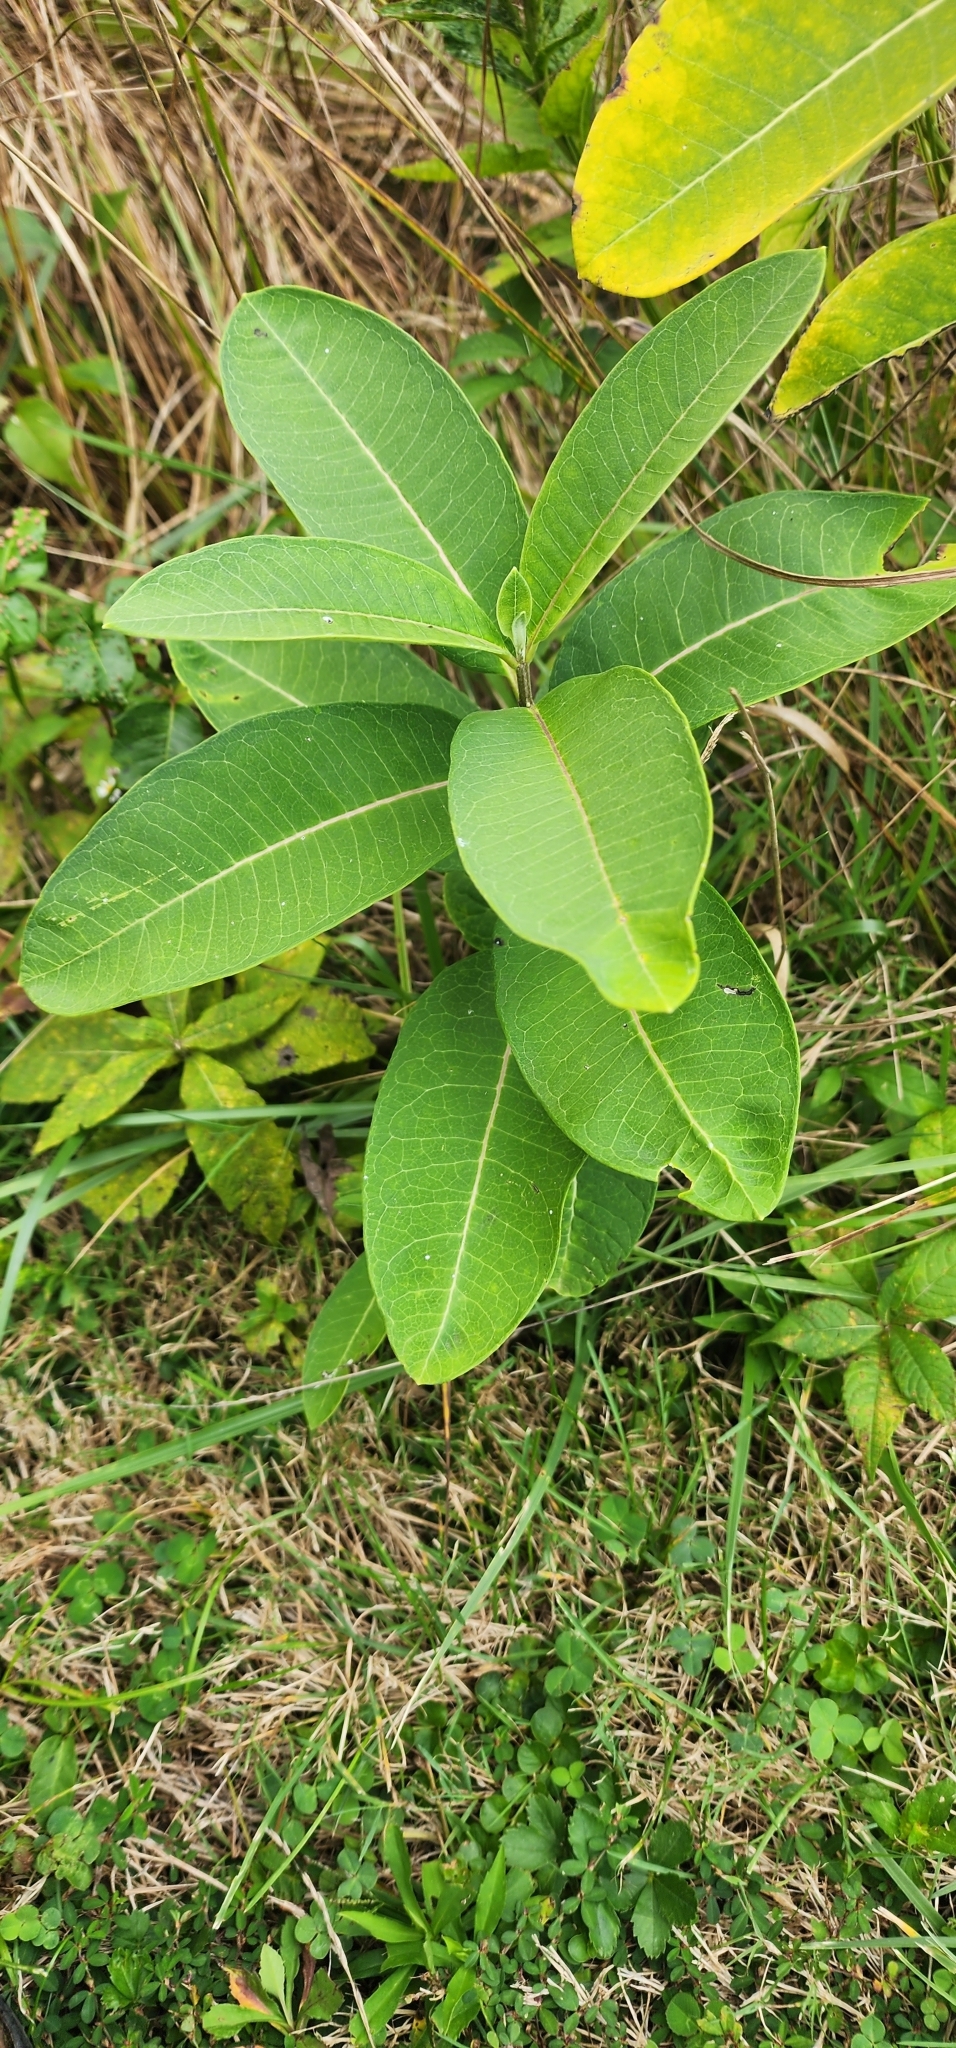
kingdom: Plantae
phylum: Tracheophyta
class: Magnoliopsida
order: Gentianales
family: Apocynaceae
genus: Asclepias
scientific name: Asclepias syriaca
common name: Common milkweed
